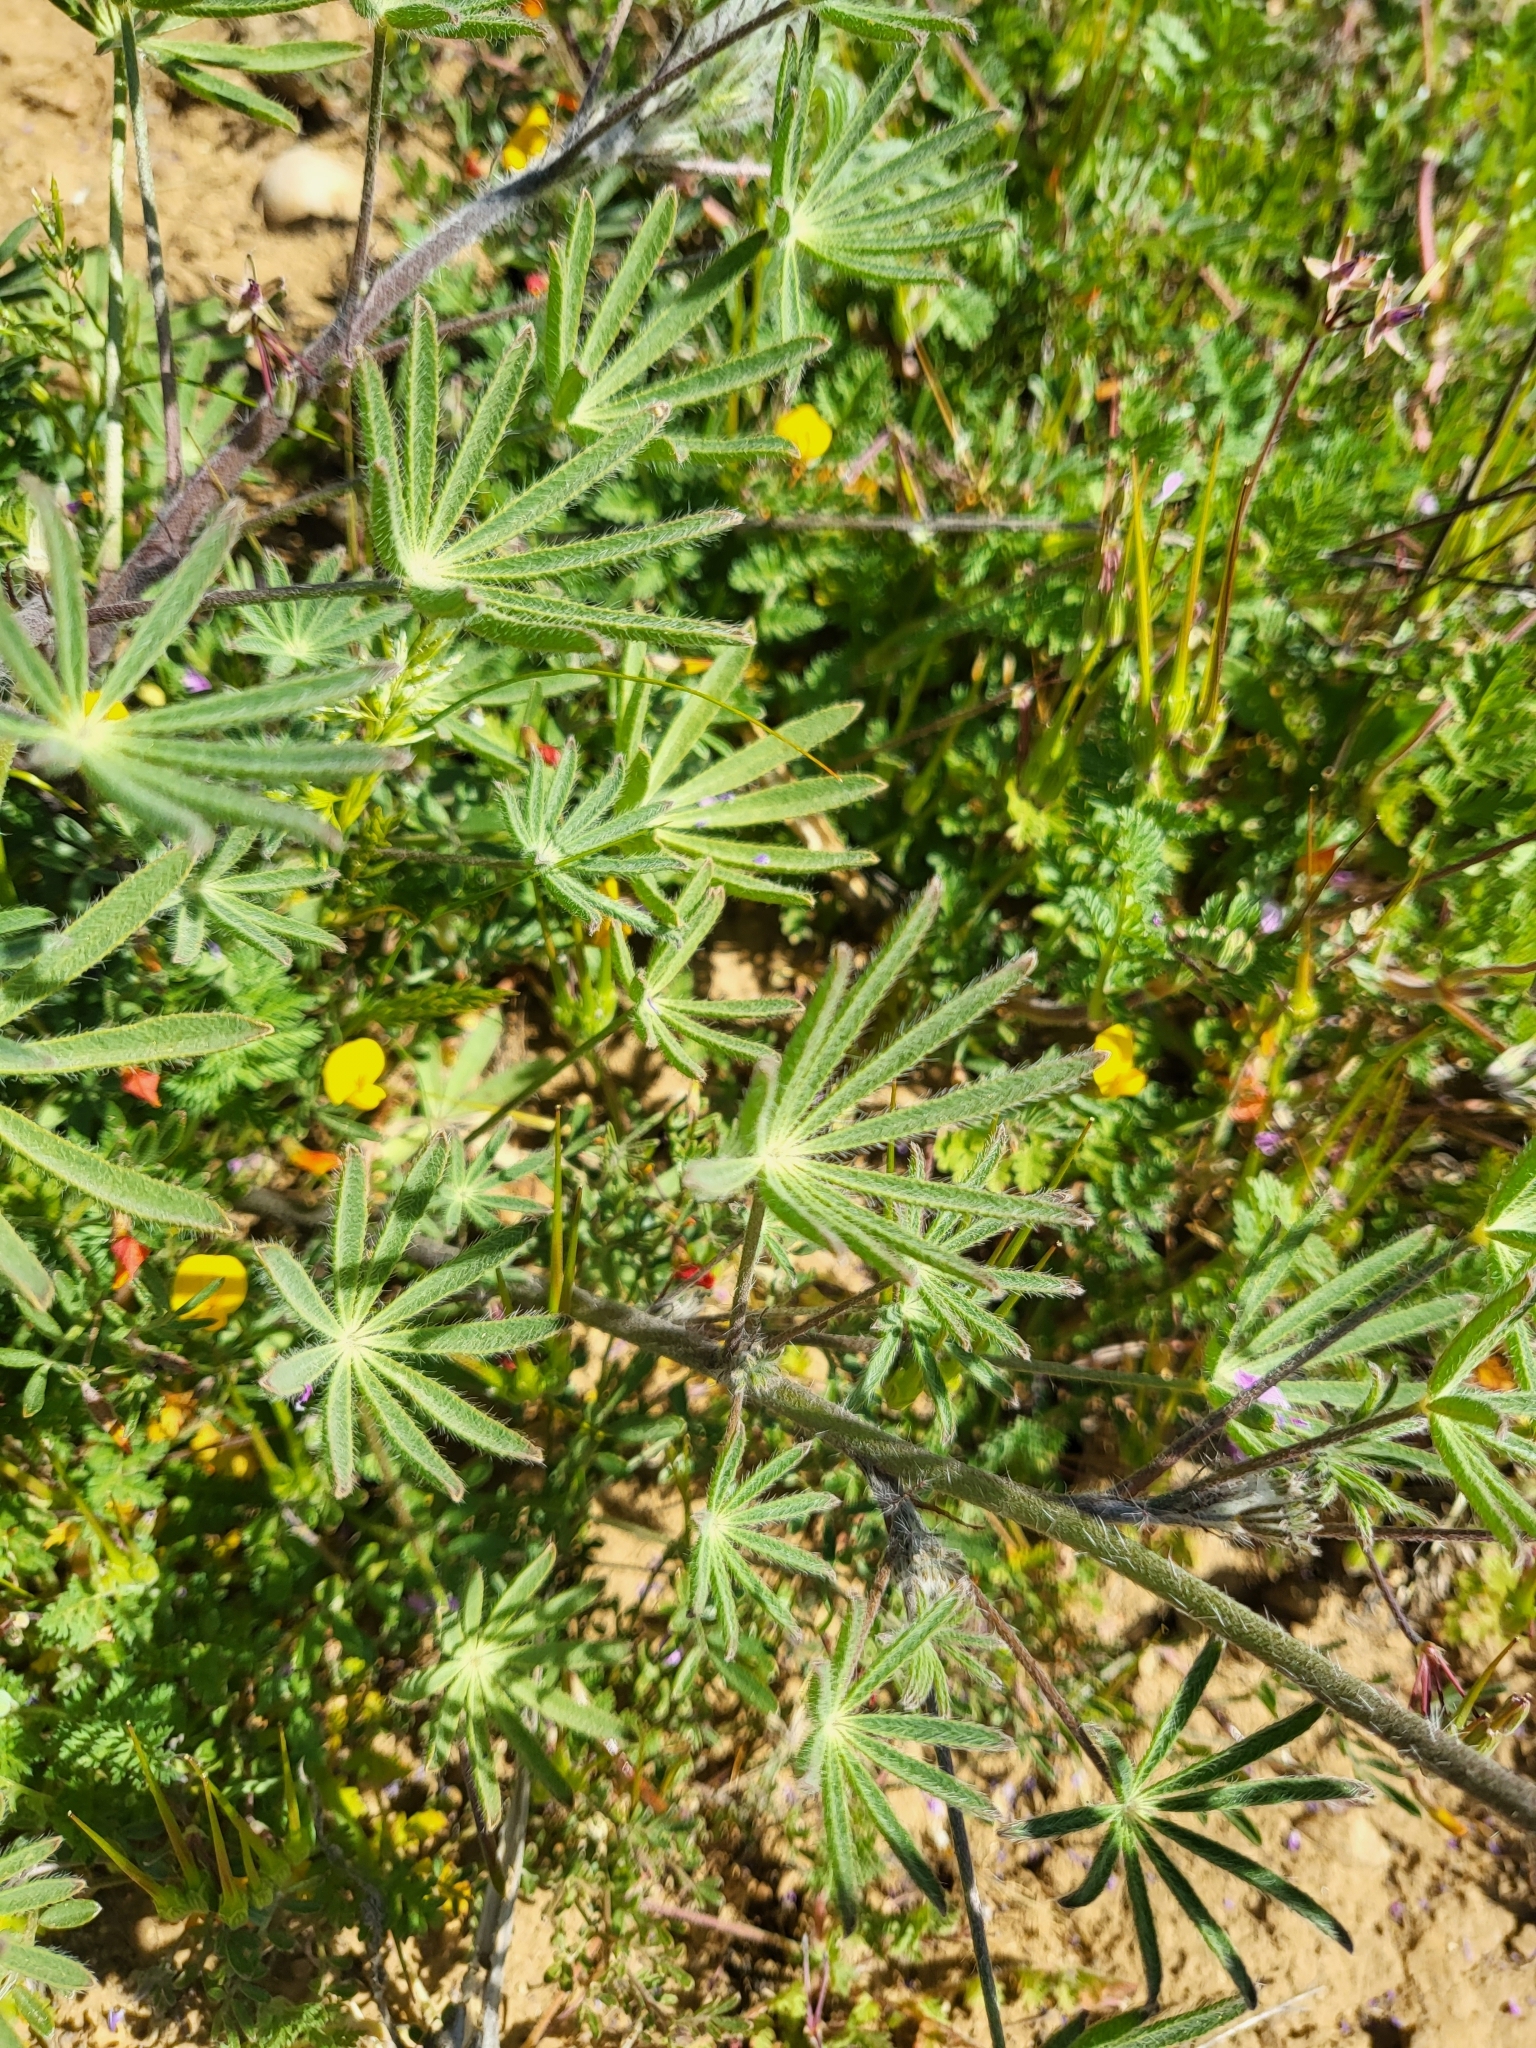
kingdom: Plantae
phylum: Tracheophyta
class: Magnoliopsida
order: Fabales
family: Fabaceae
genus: Lupinus
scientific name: Lupinus sparsiflorus
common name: Coulter's lupine
